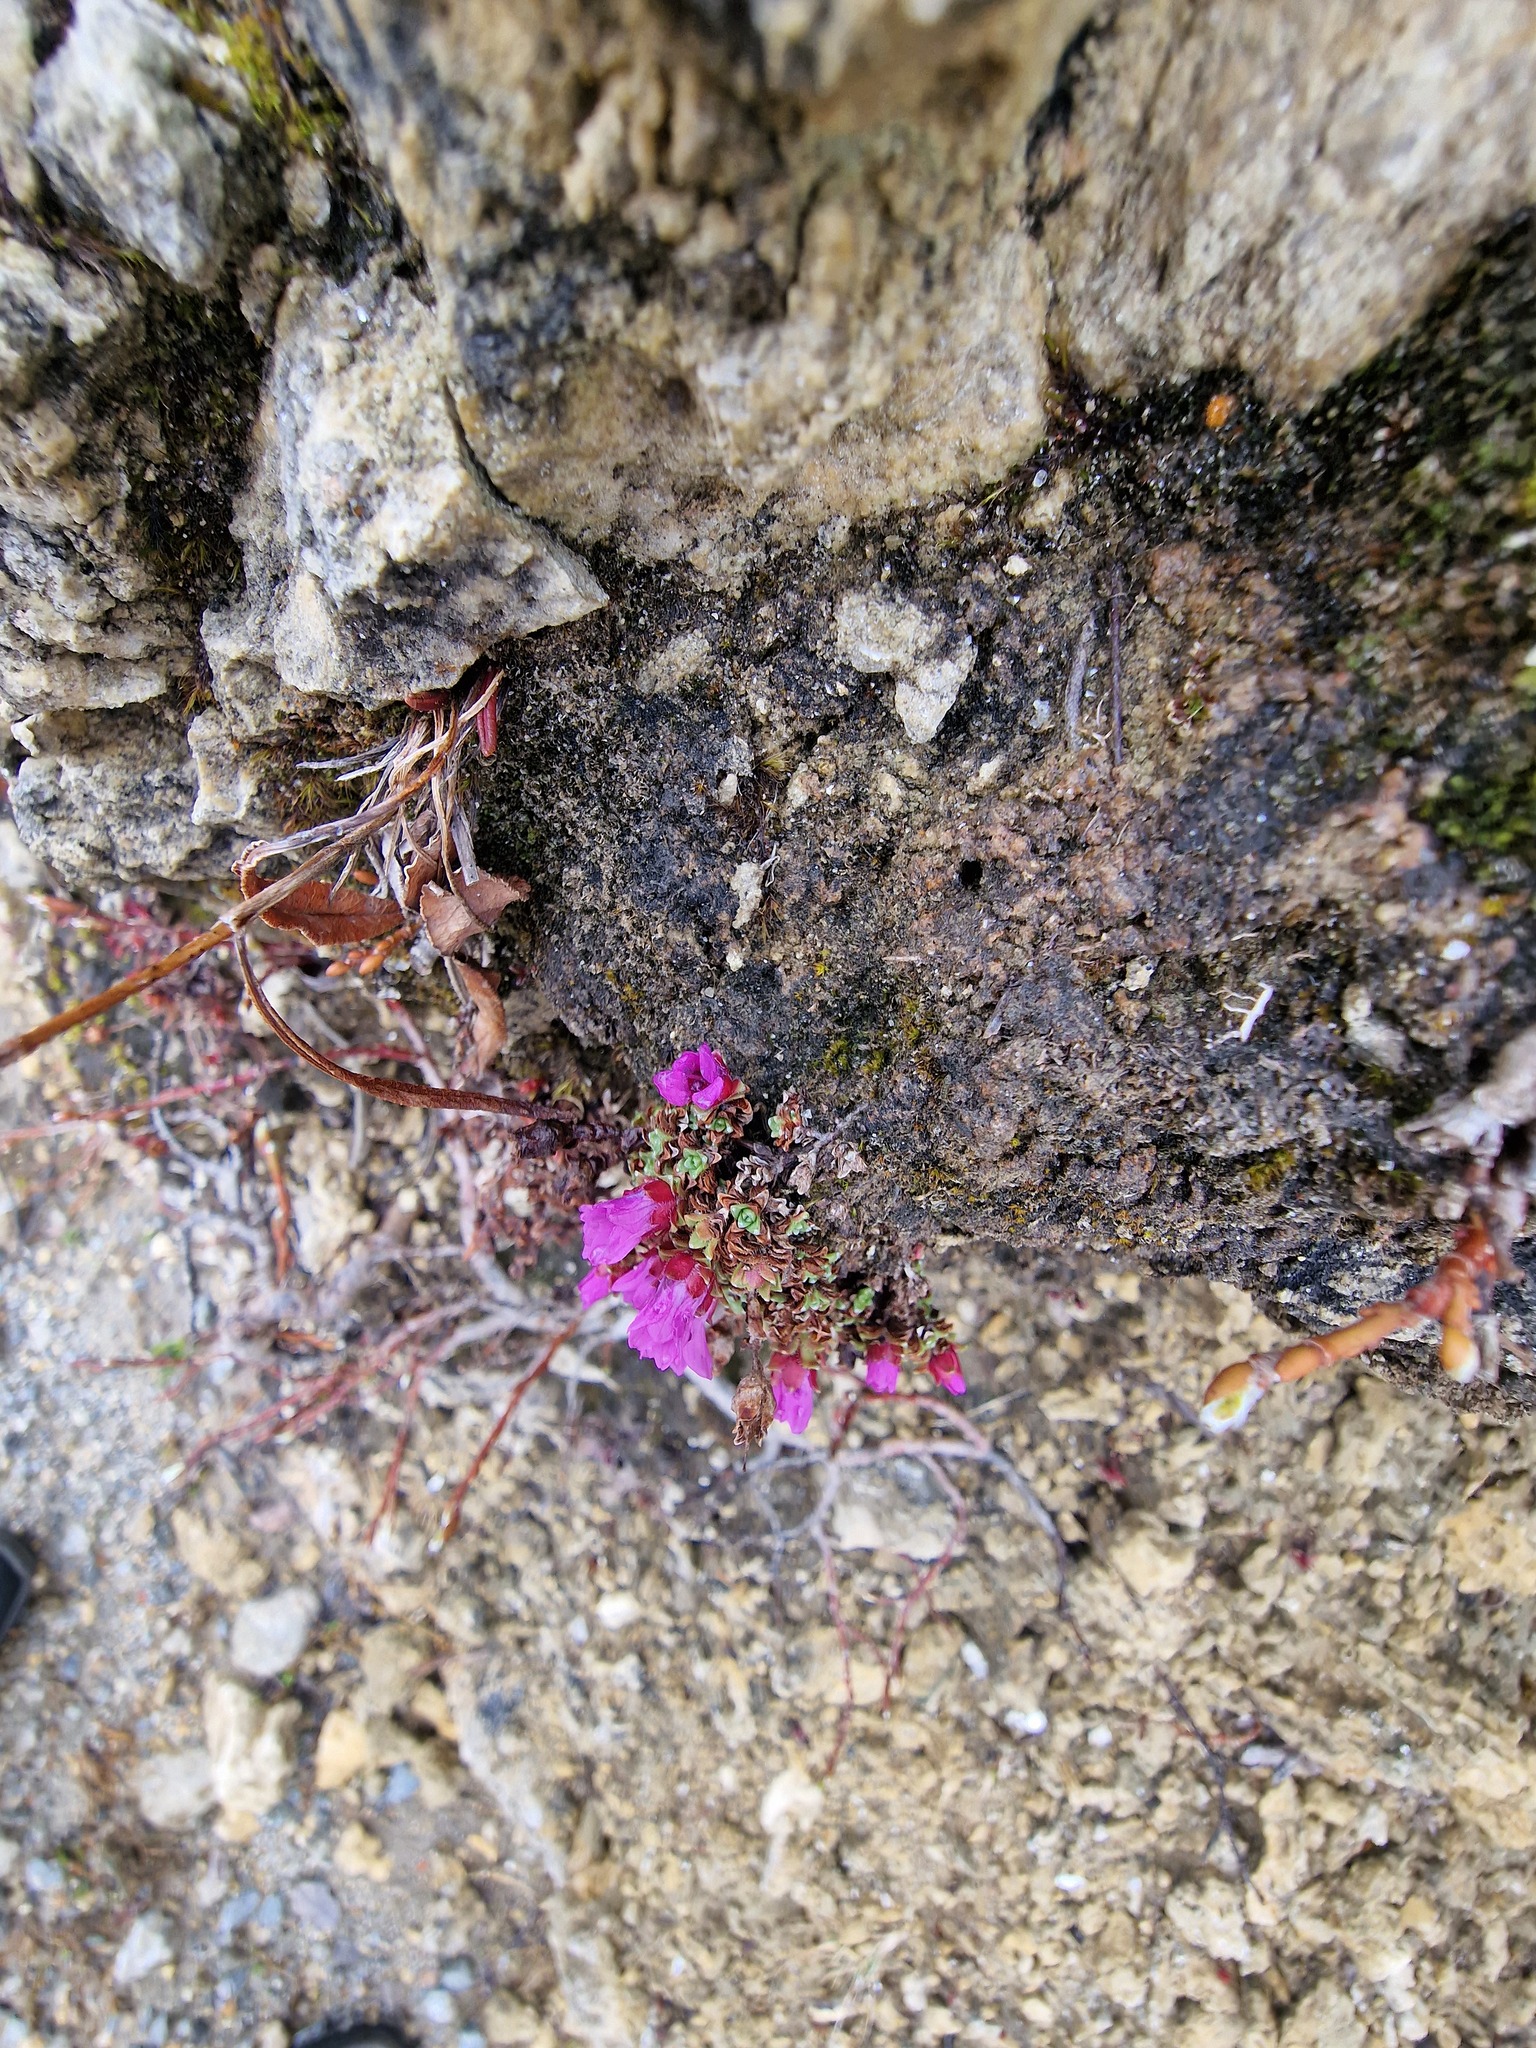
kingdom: Plantae
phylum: Tracheophyta
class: Magnoliopsida
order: Saxifragales
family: Saxifragaceae
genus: Saxifraga
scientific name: Saxifraga oppositifolia
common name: Purple saxifrage
